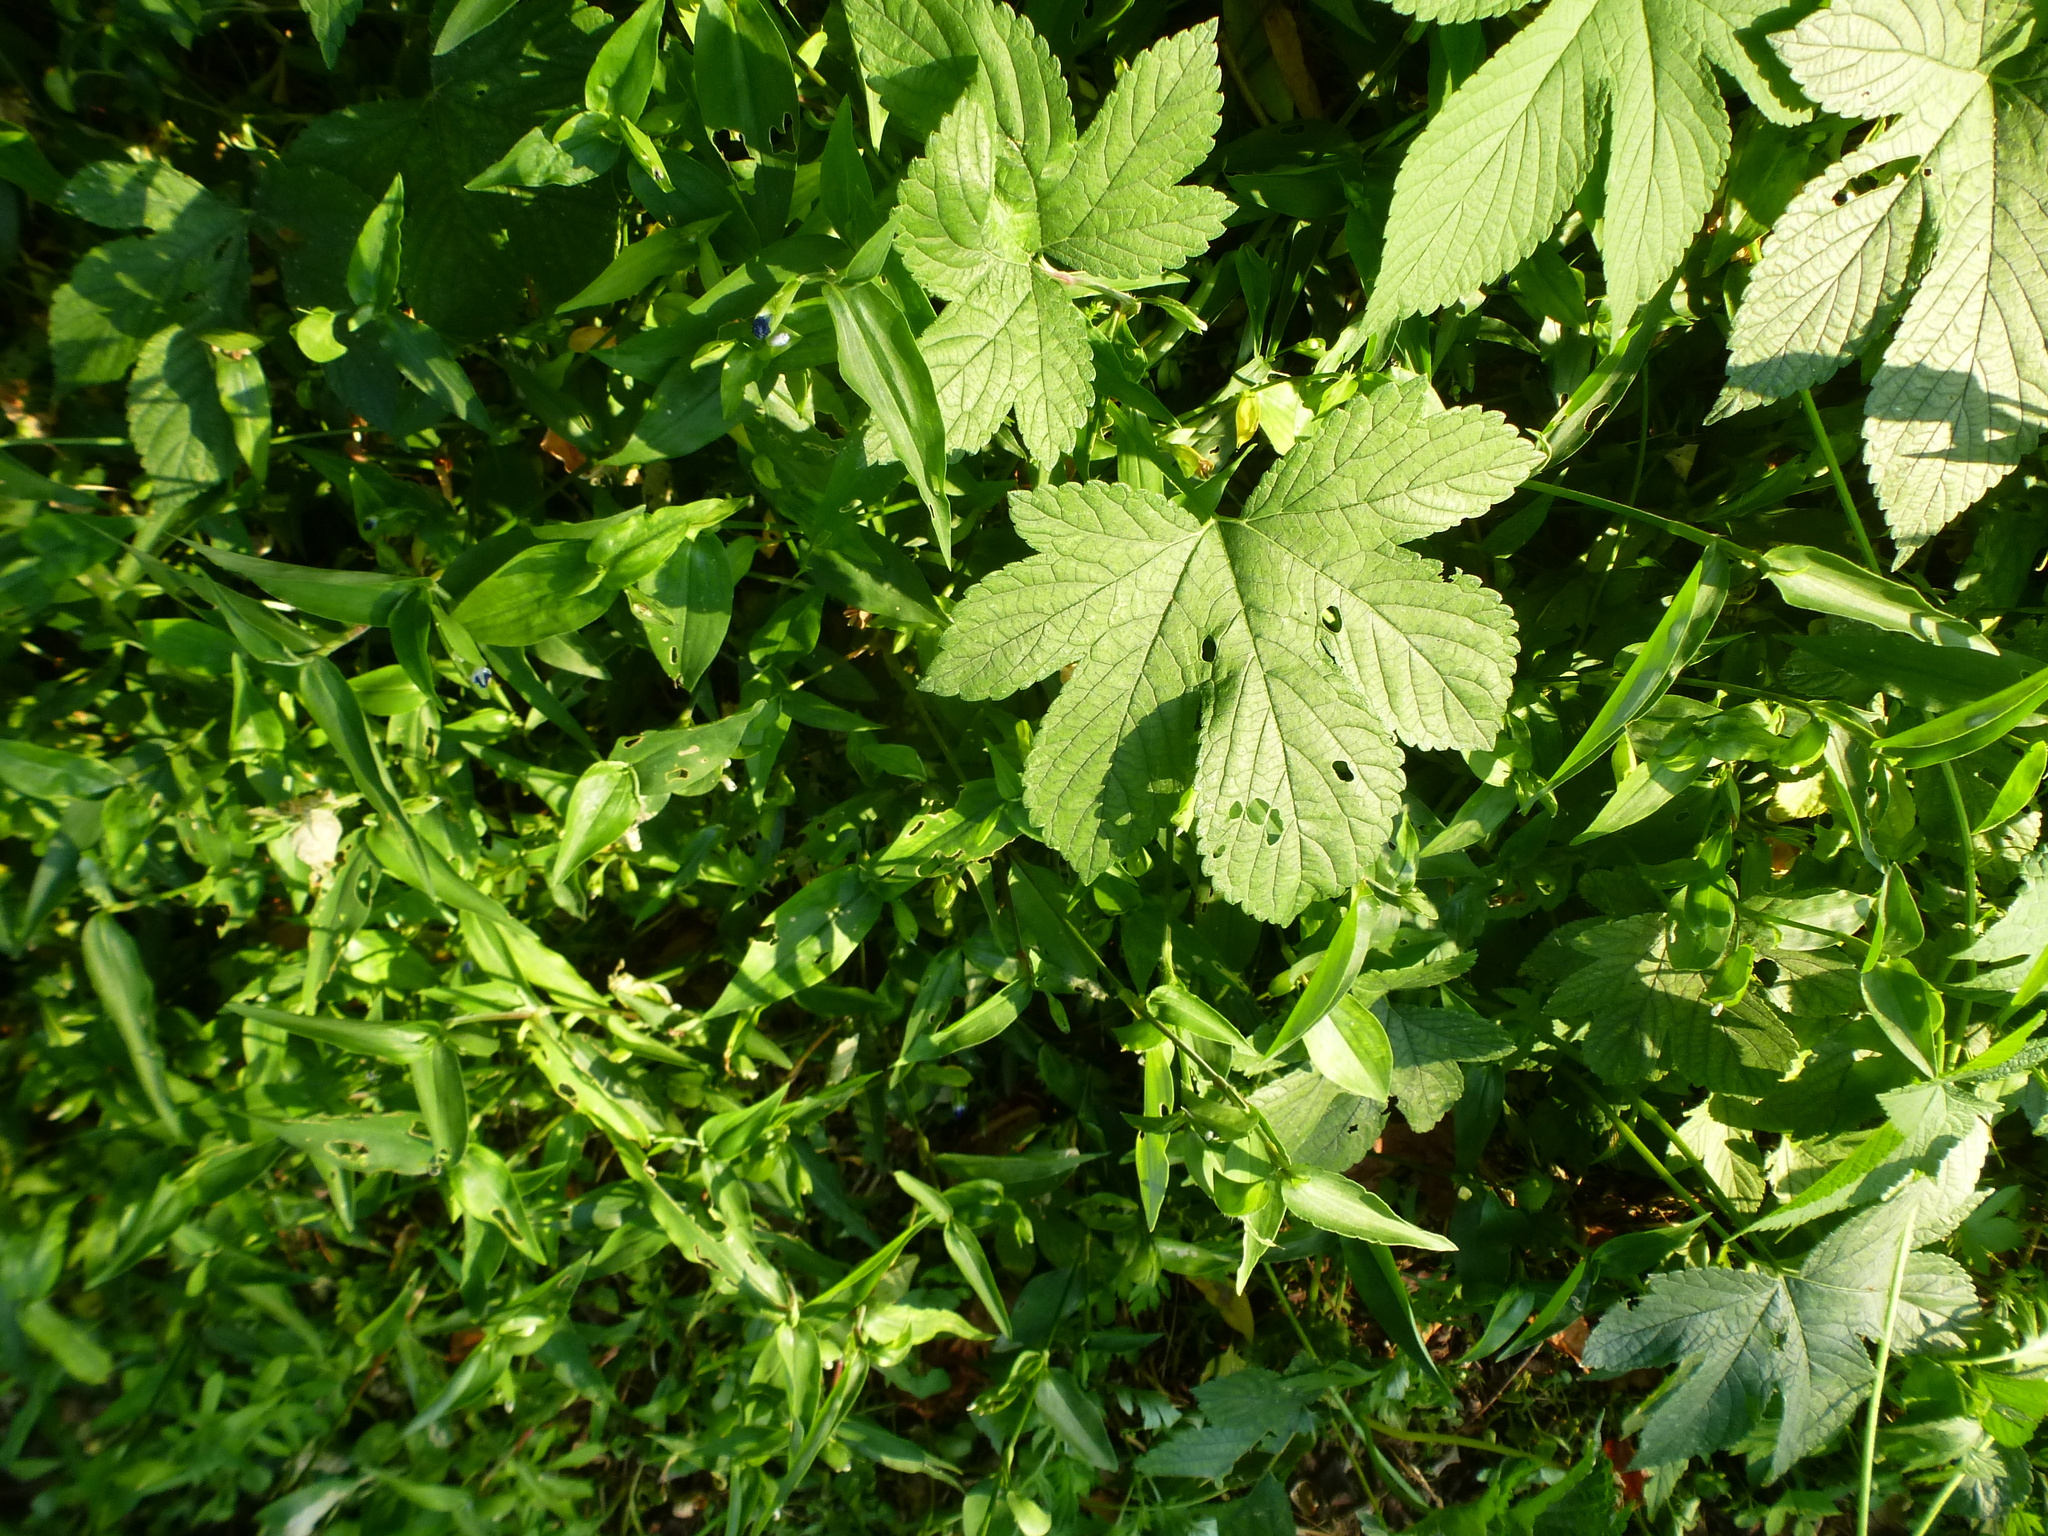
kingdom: Plantae
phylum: Tracheophyta
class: Magnoliopsida
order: Rosales
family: Cannabaceae
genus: Humulus
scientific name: Humulus scandens
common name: Japanese hop
